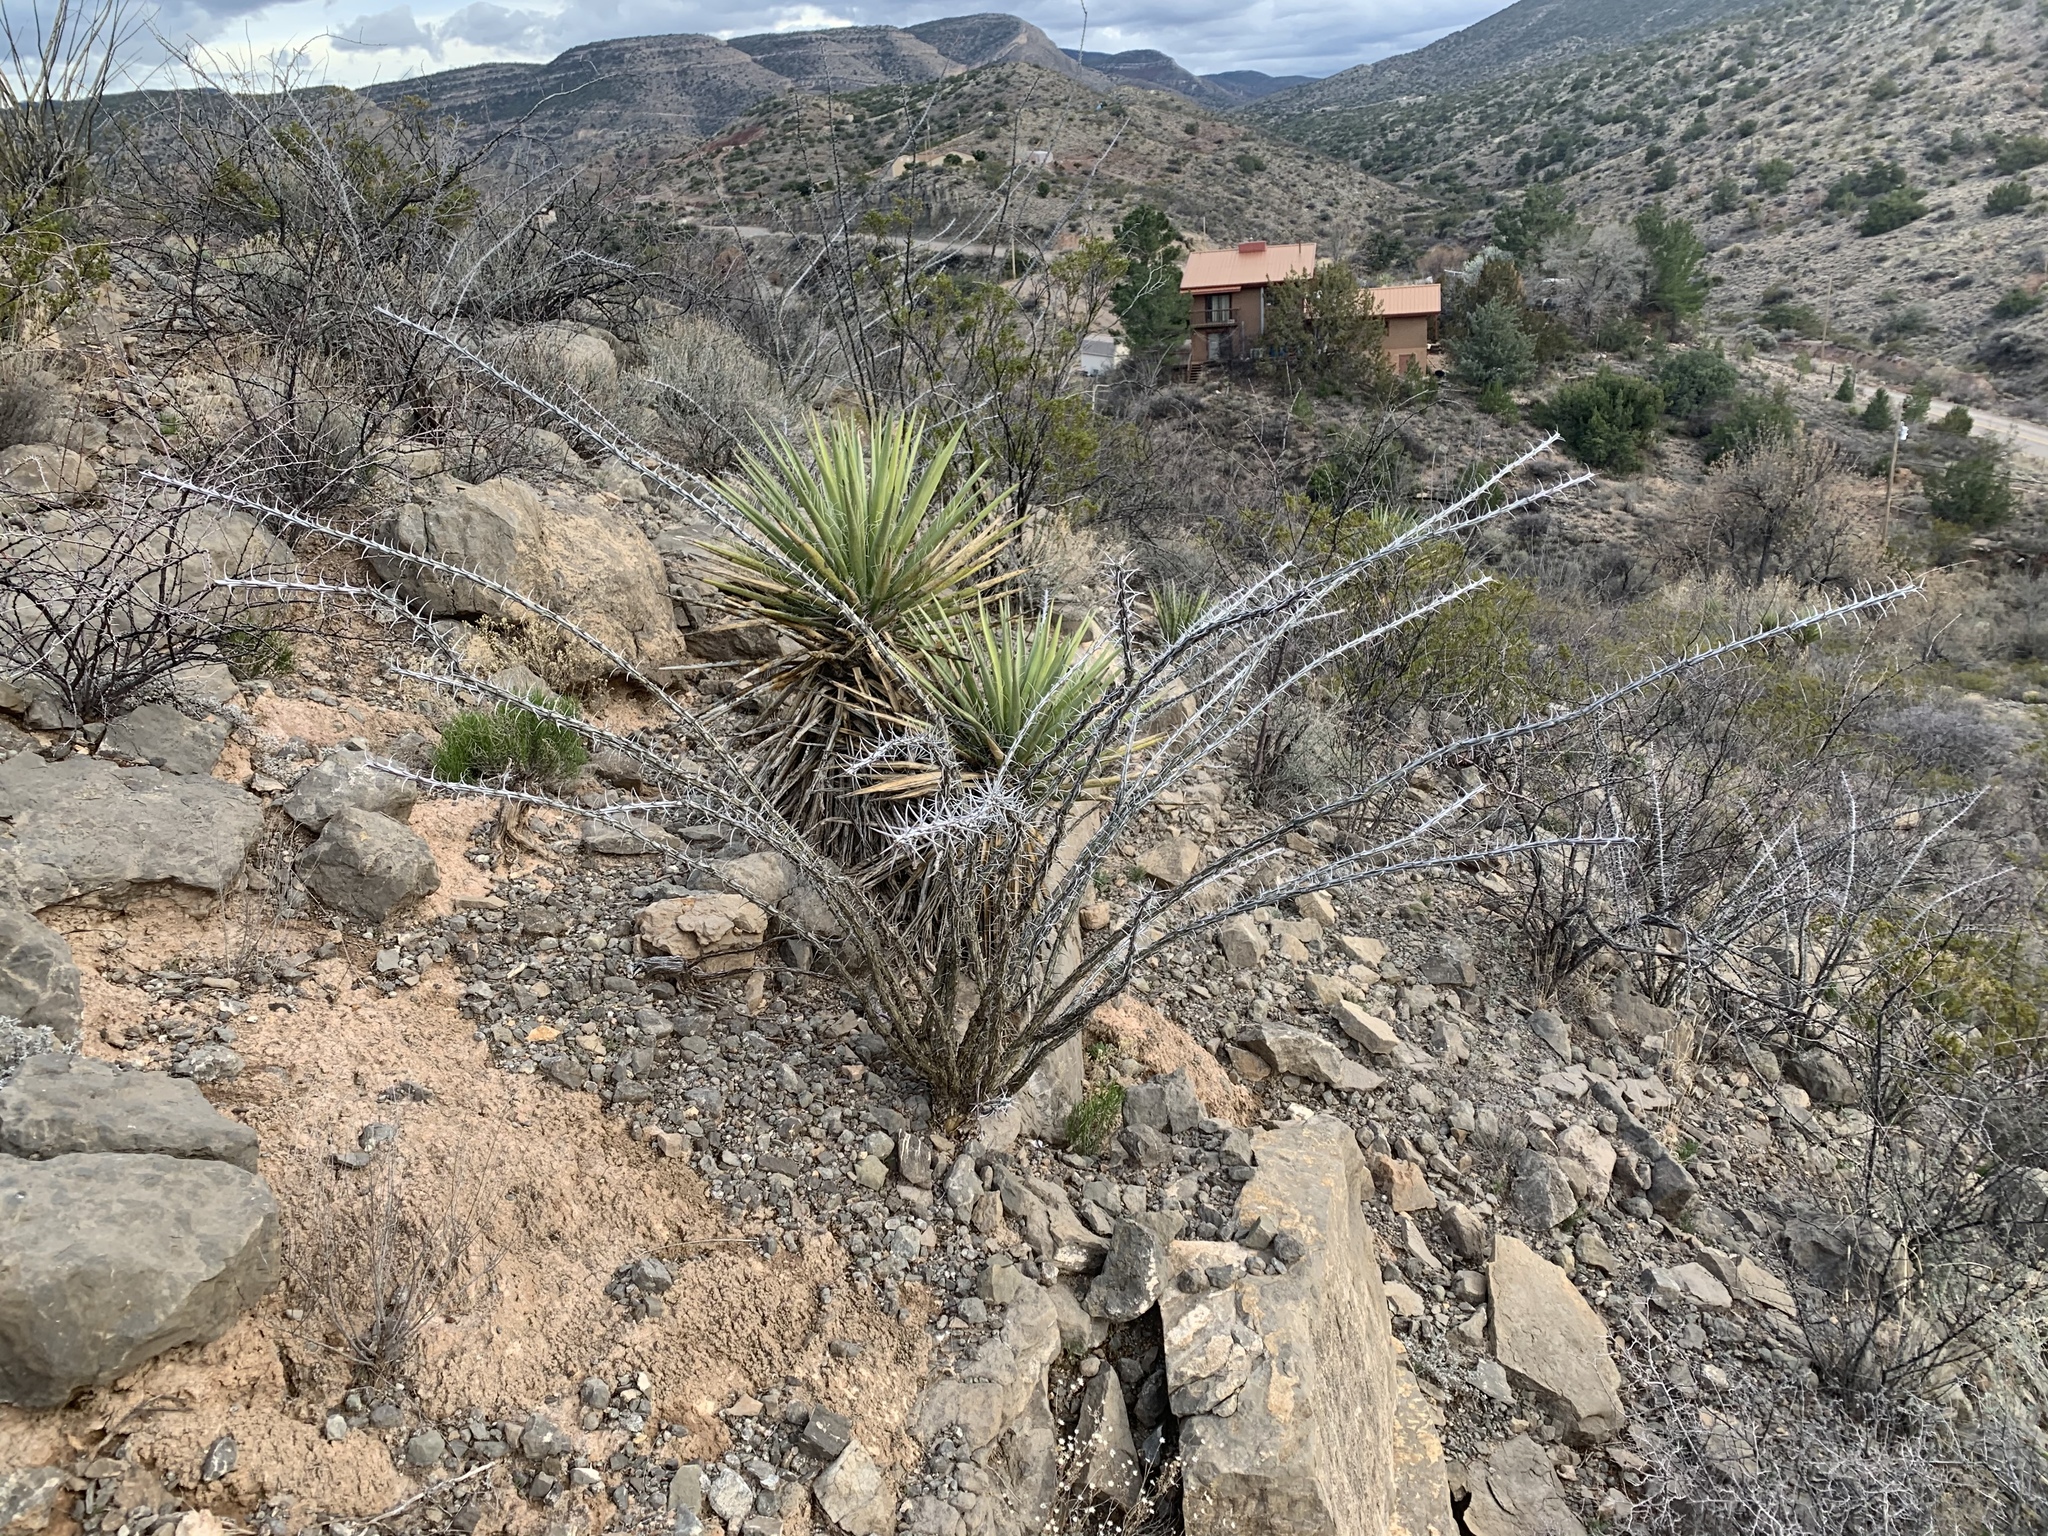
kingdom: Plantae
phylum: Tracheophyta
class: Magnoliopsida
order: Ericales
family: Fouquieriaceae
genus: Fouquieria
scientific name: Fouquieria splendens
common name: Vine-cactus
